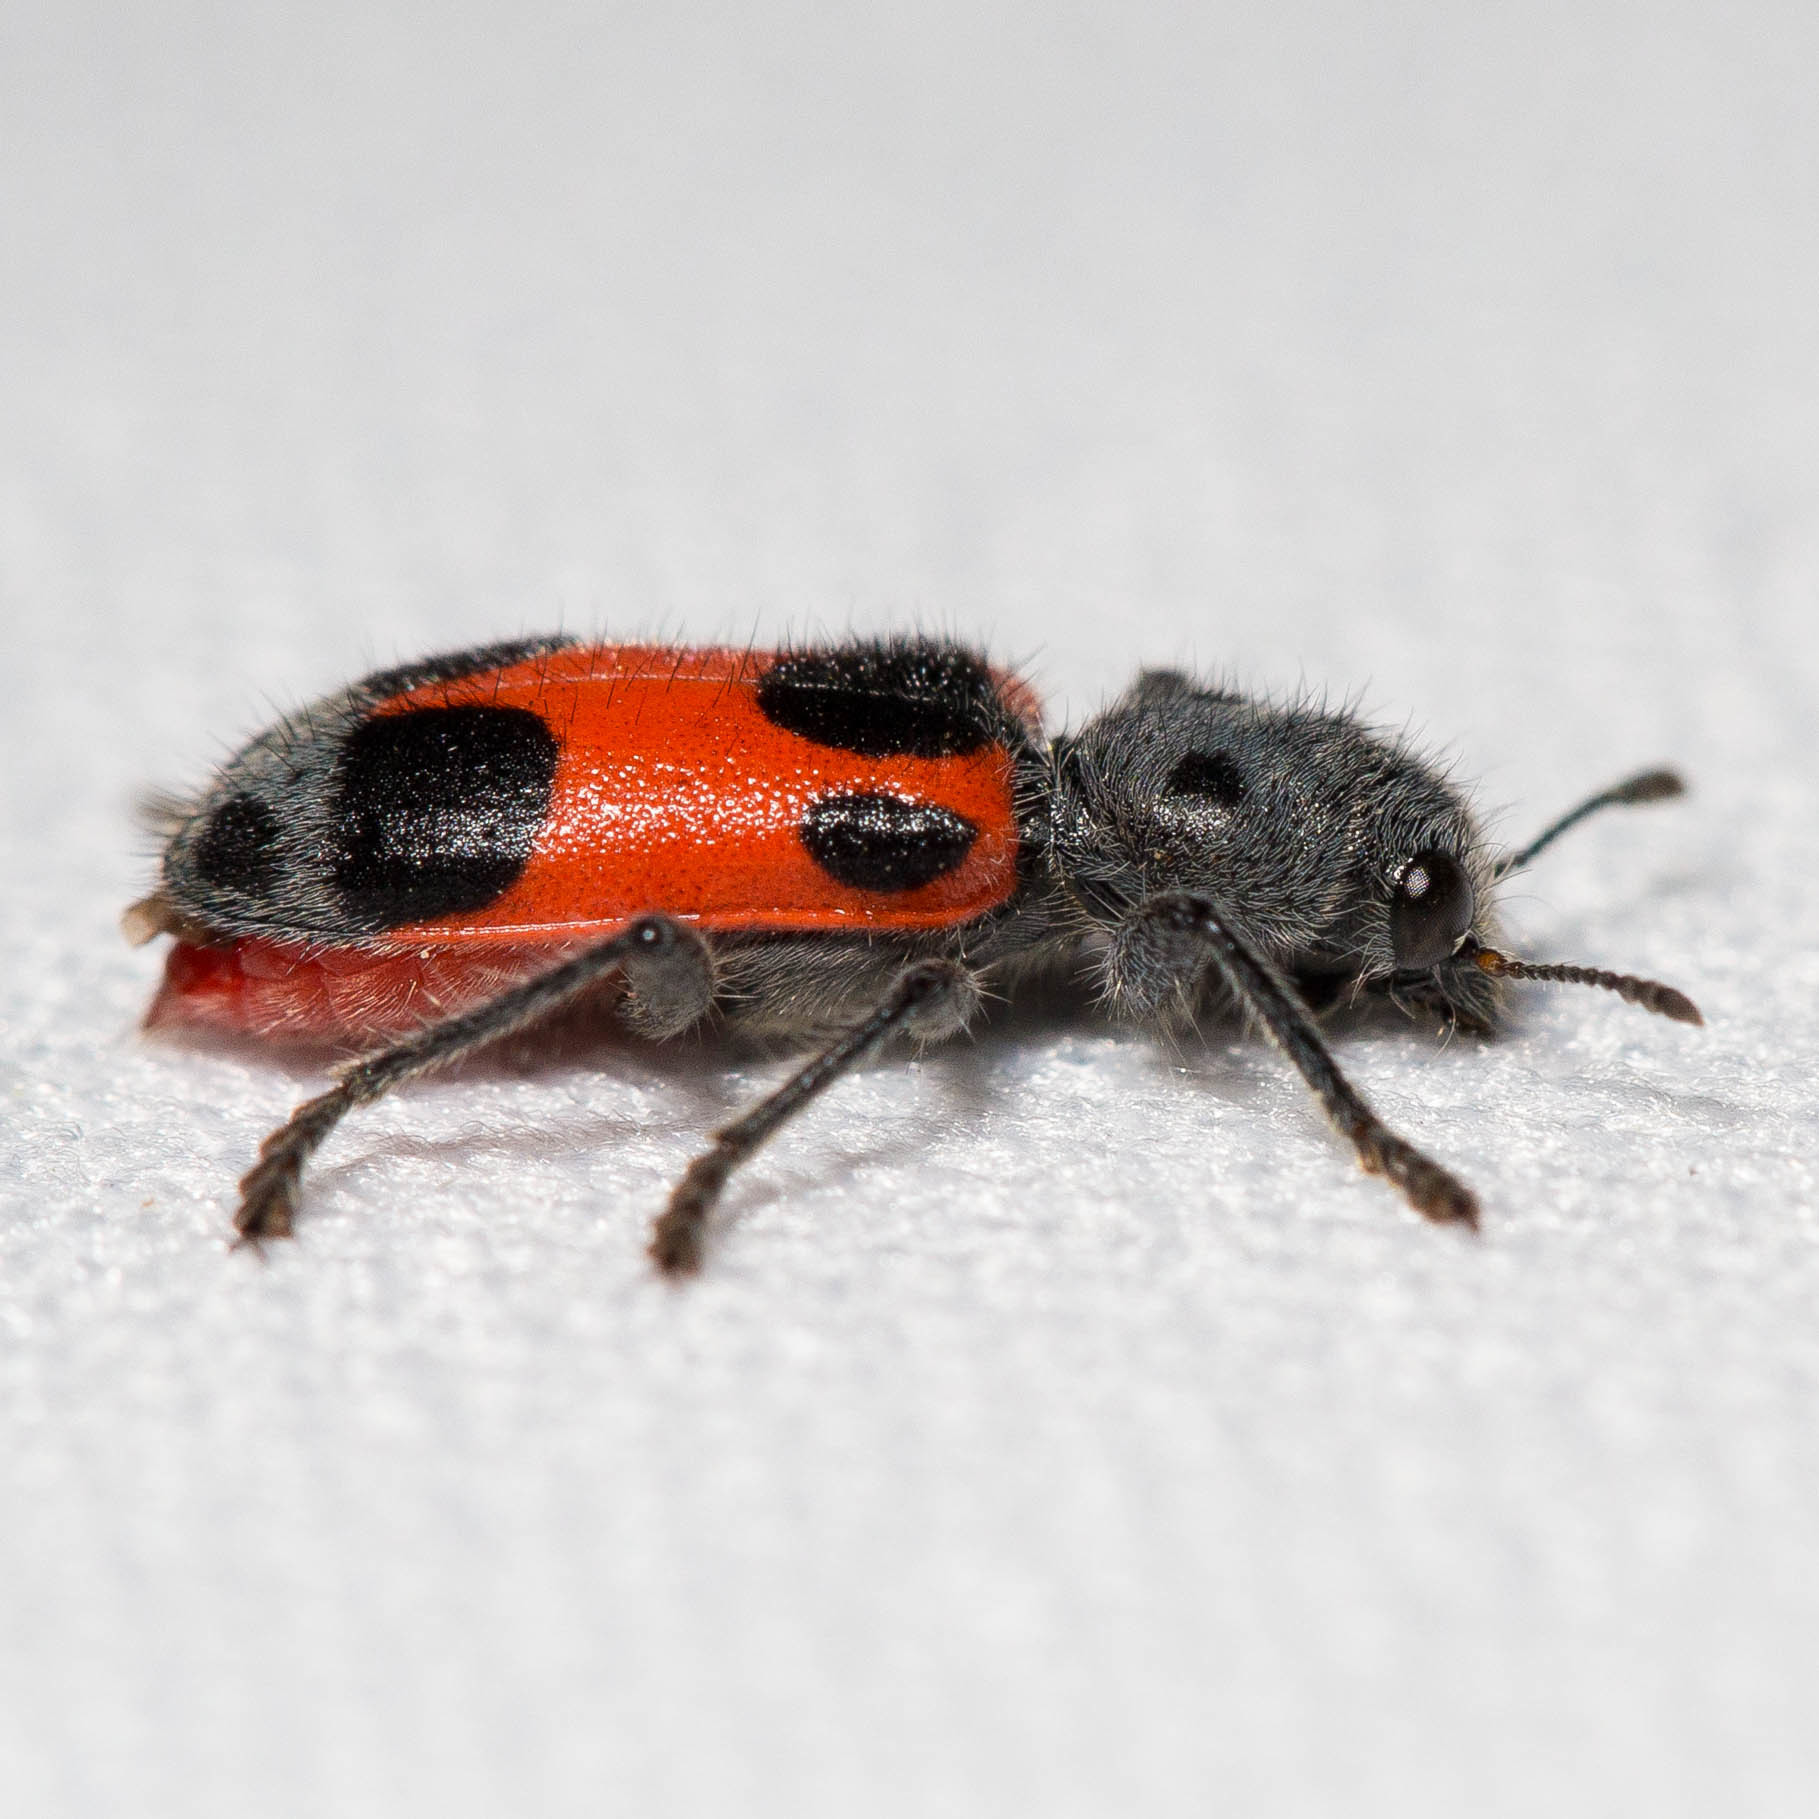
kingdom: Animalia
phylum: Arthropoda
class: Insecta
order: Coleoptera
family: Cleridae
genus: Enoclerus
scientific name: Enoclerus eximius
